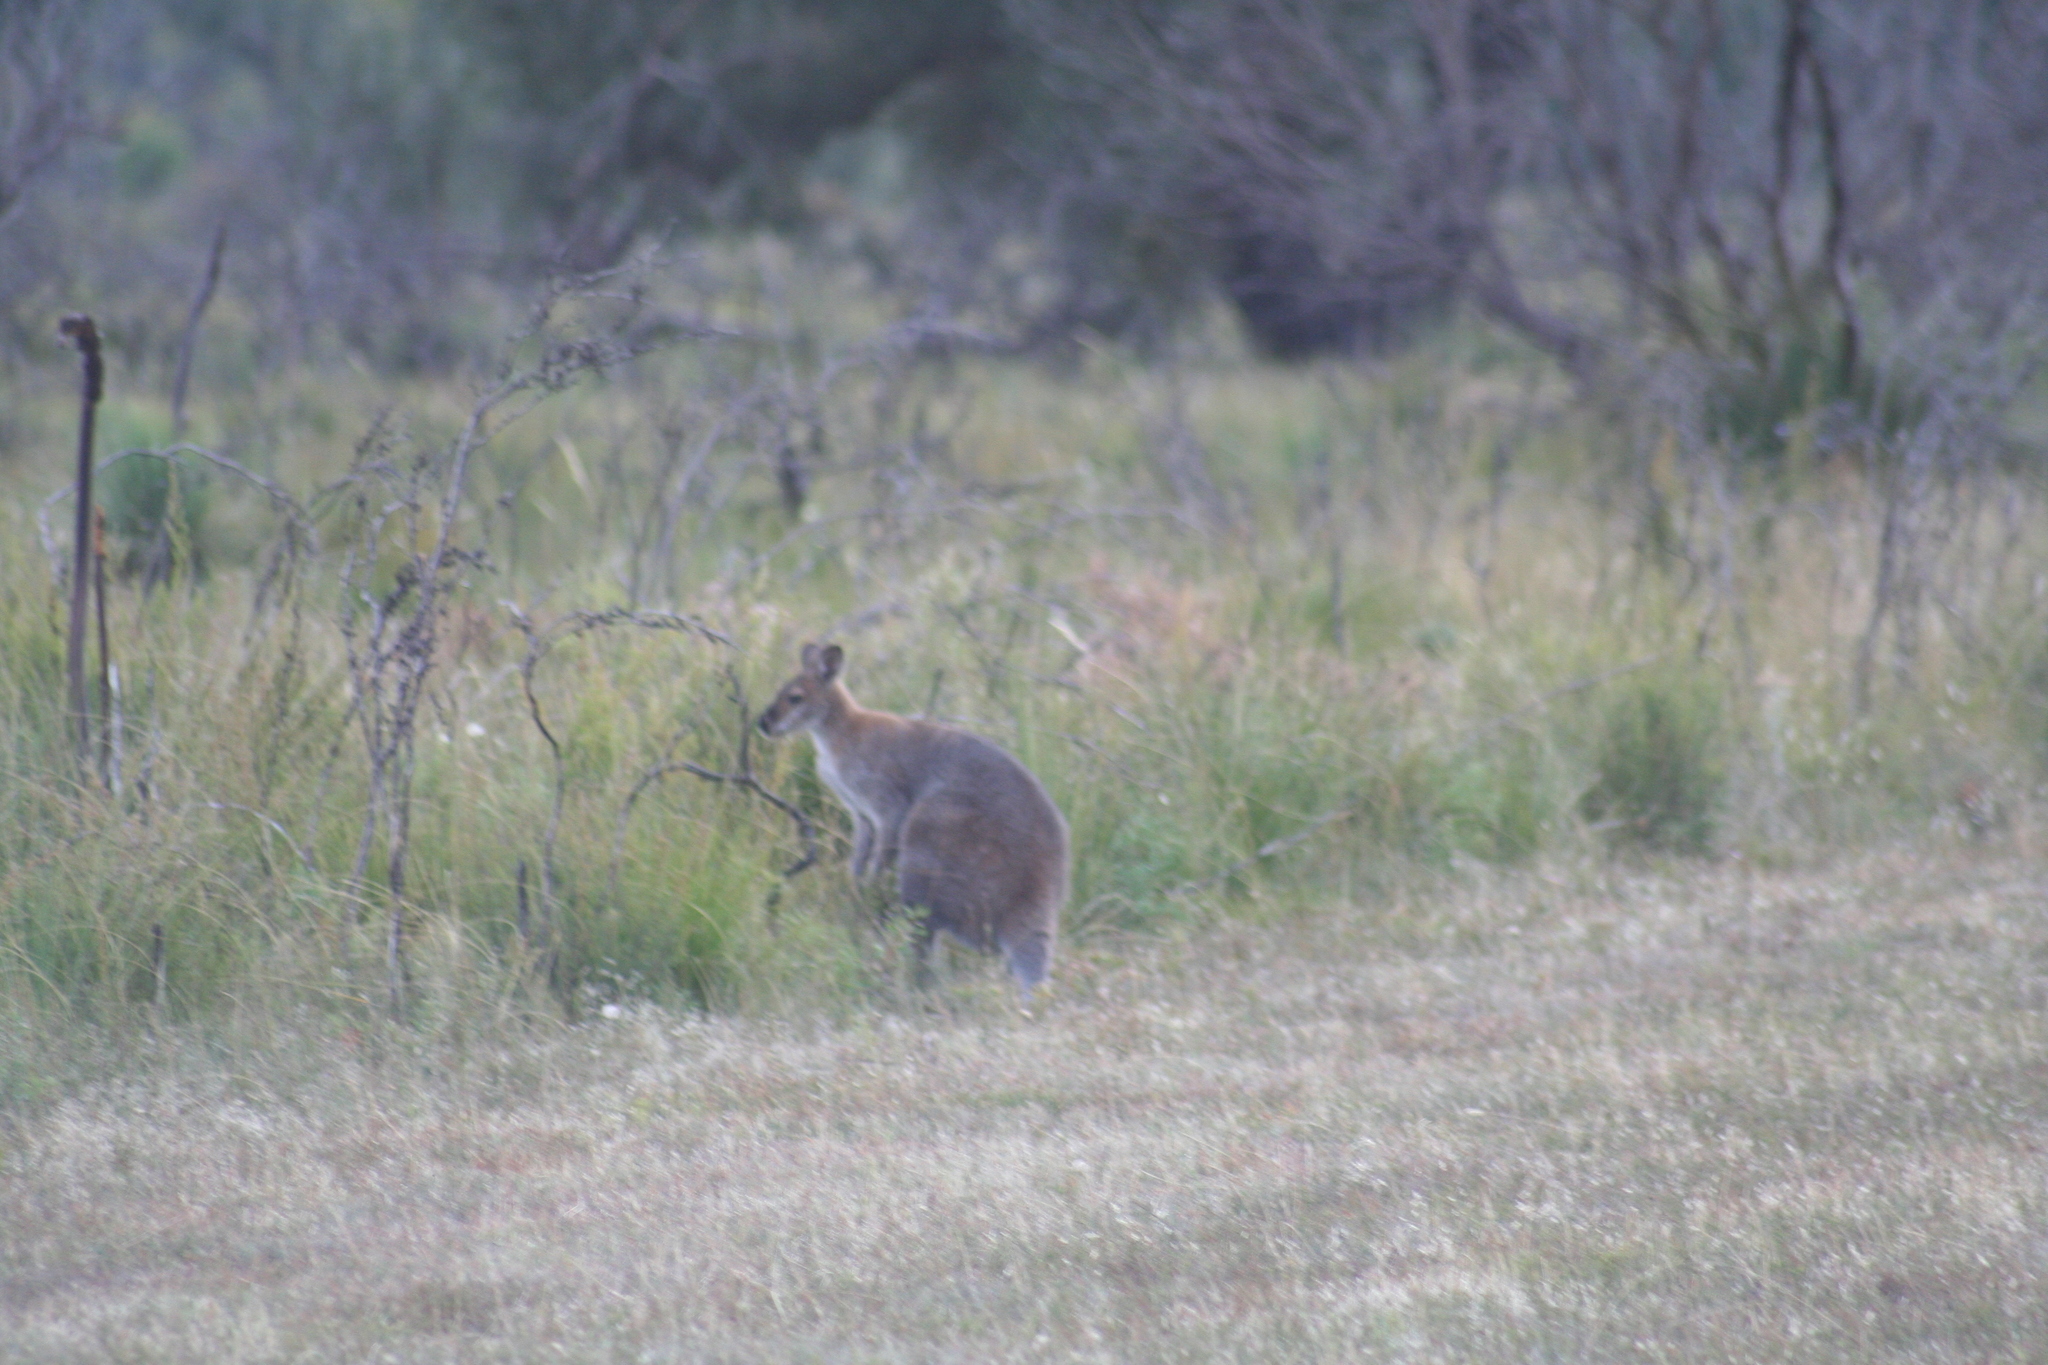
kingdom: Animalia
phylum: Chordata
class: Mammalia
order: Diprotodontia
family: Macropodidae
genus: Notamacropus
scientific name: Notamacropus rufogriseus
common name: Red-necked wallaby
